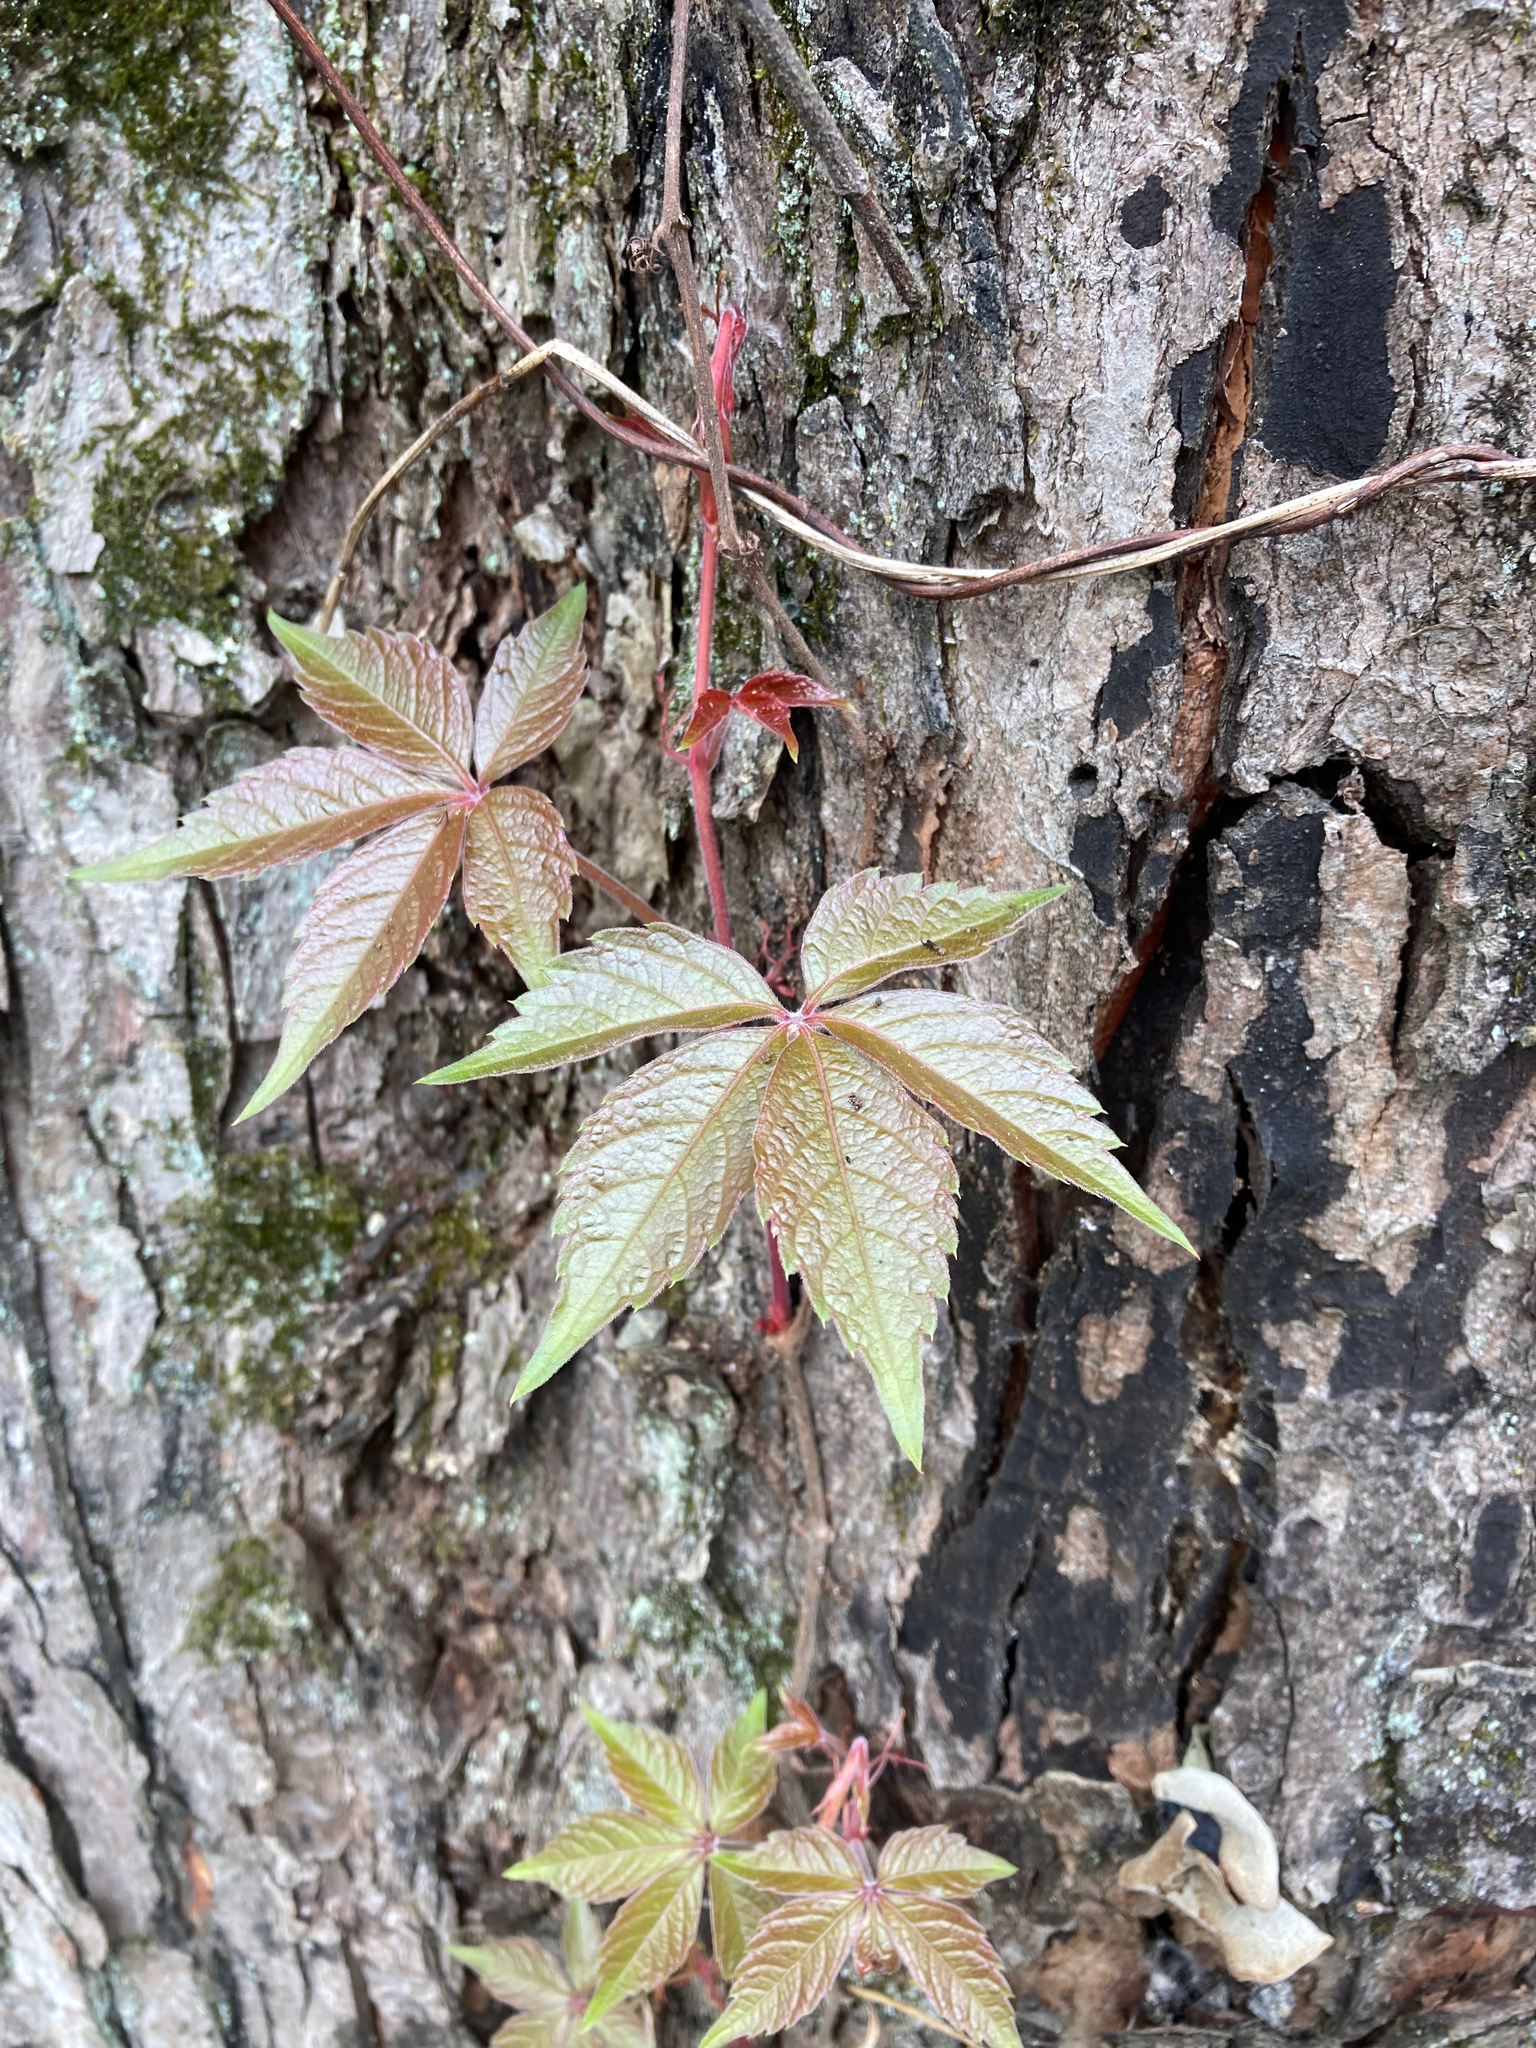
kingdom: Plantae
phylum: Tracheophyta
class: Magnoliopsida
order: Vitales
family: Vitaceae
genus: Parthenocissus
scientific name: Parthenocissus quinquefolia
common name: Virginia-creeper
